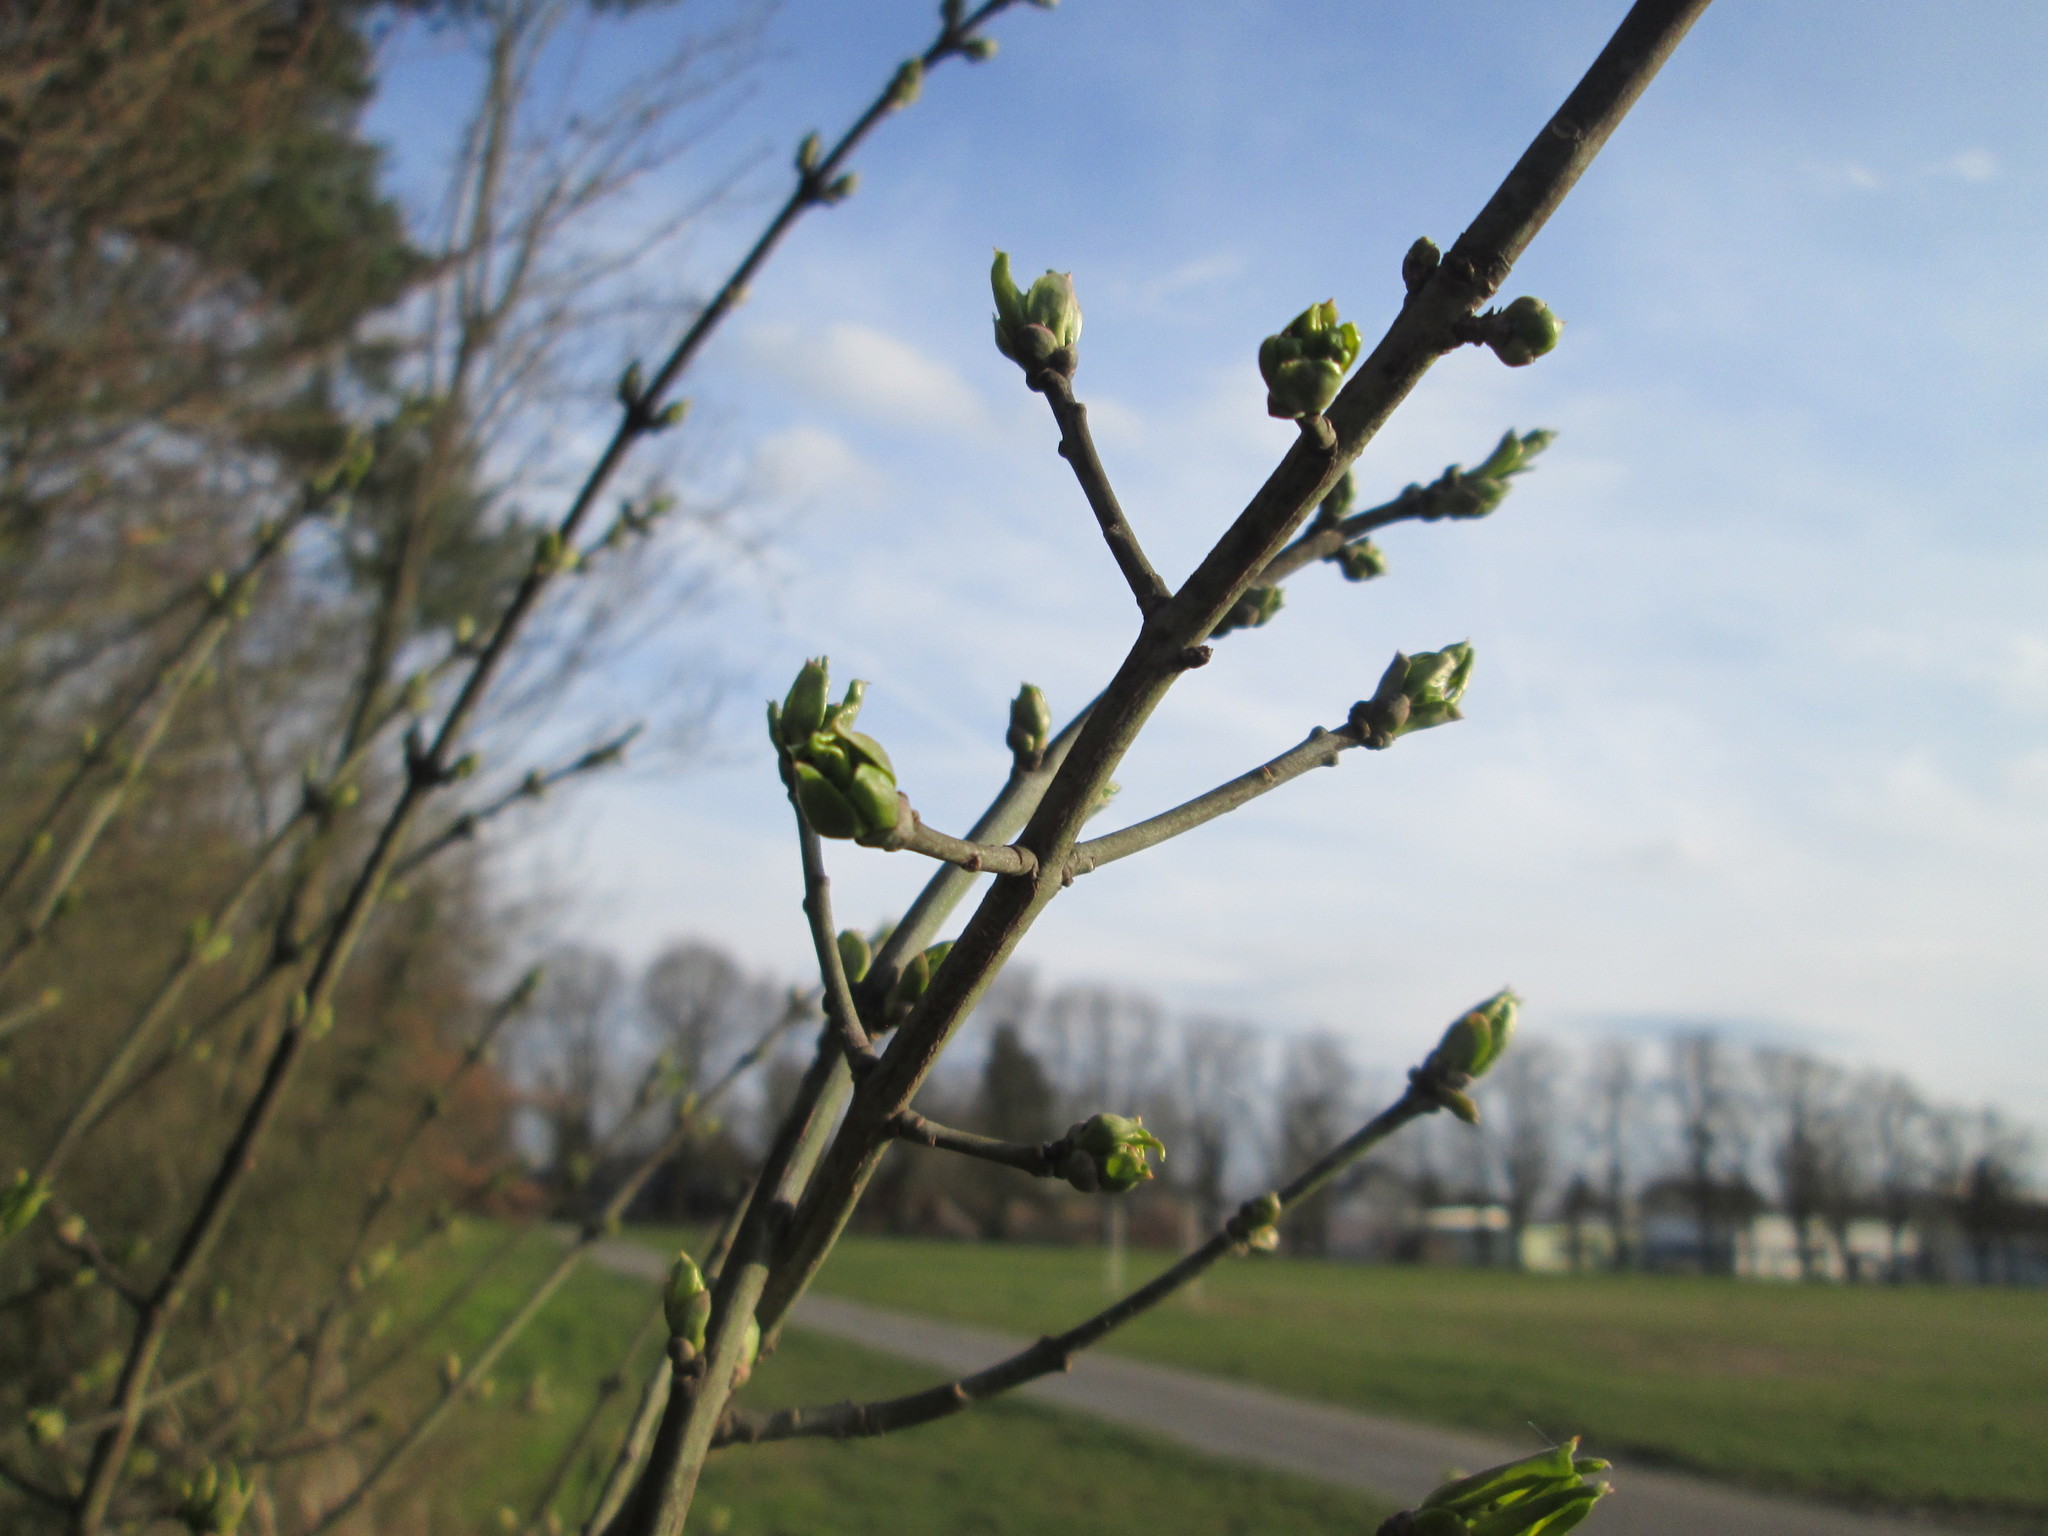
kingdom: Plantae
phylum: Tracheophyta
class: Magnoliopsida
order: Celastrales
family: Celastraceae
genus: Euonymus
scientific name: Euonymus europaeus
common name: Spindle
